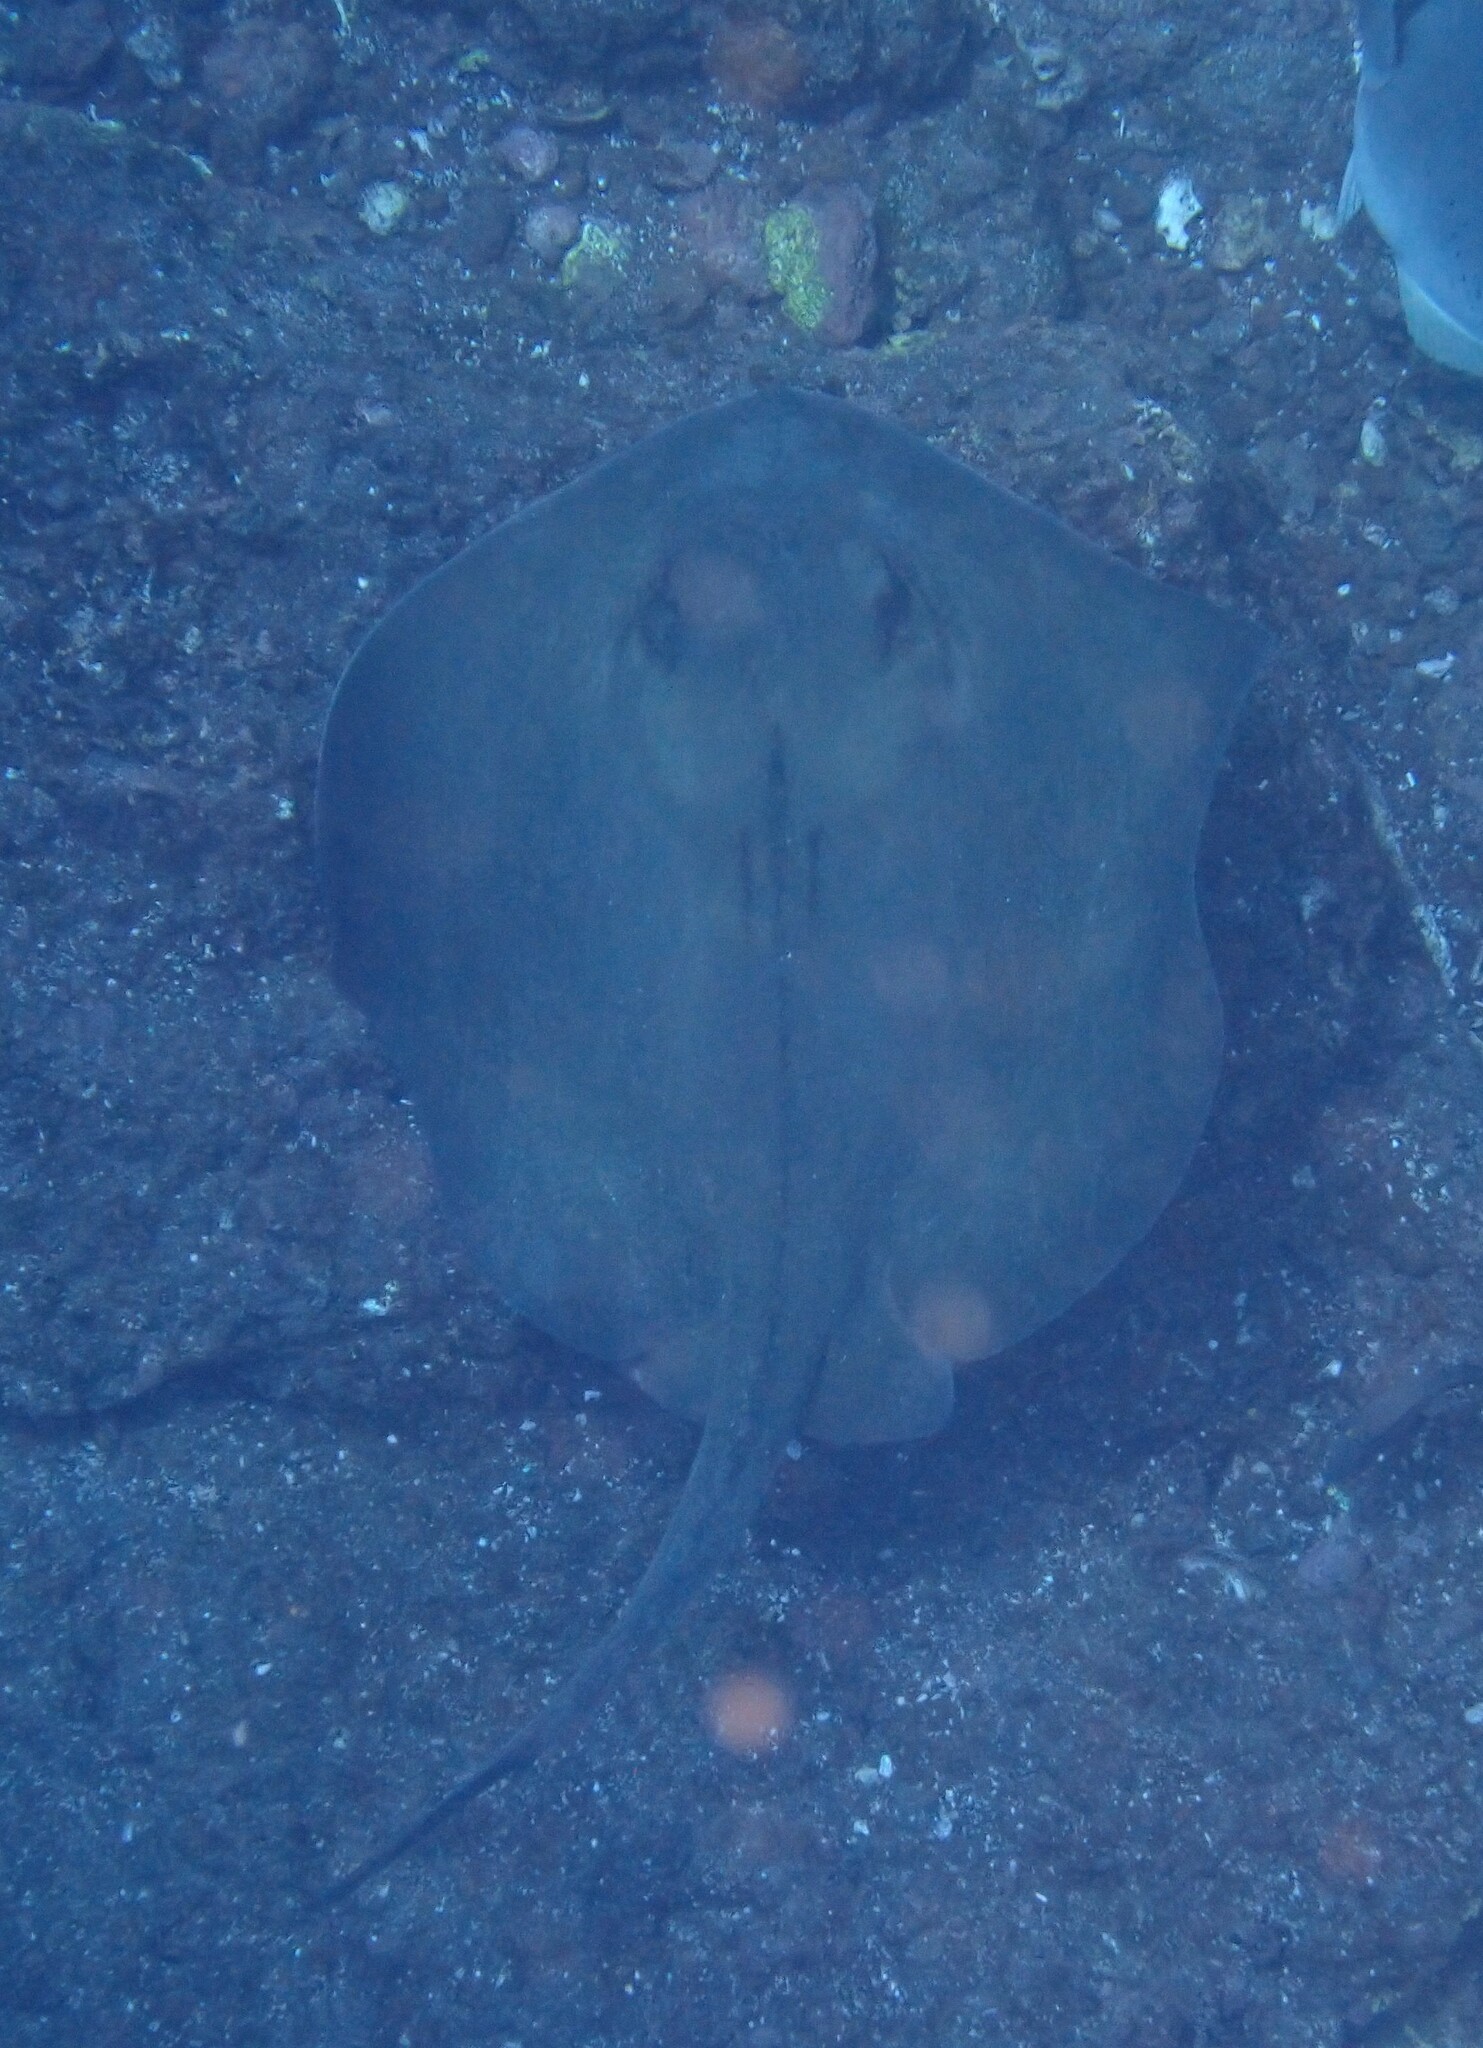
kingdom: Animalia
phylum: Chordata
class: Elasmobranchii
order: Myliobatiformes
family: Dasyatidae
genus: Hypanus
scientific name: Hypanus dipterurus
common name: Diamond stingray
